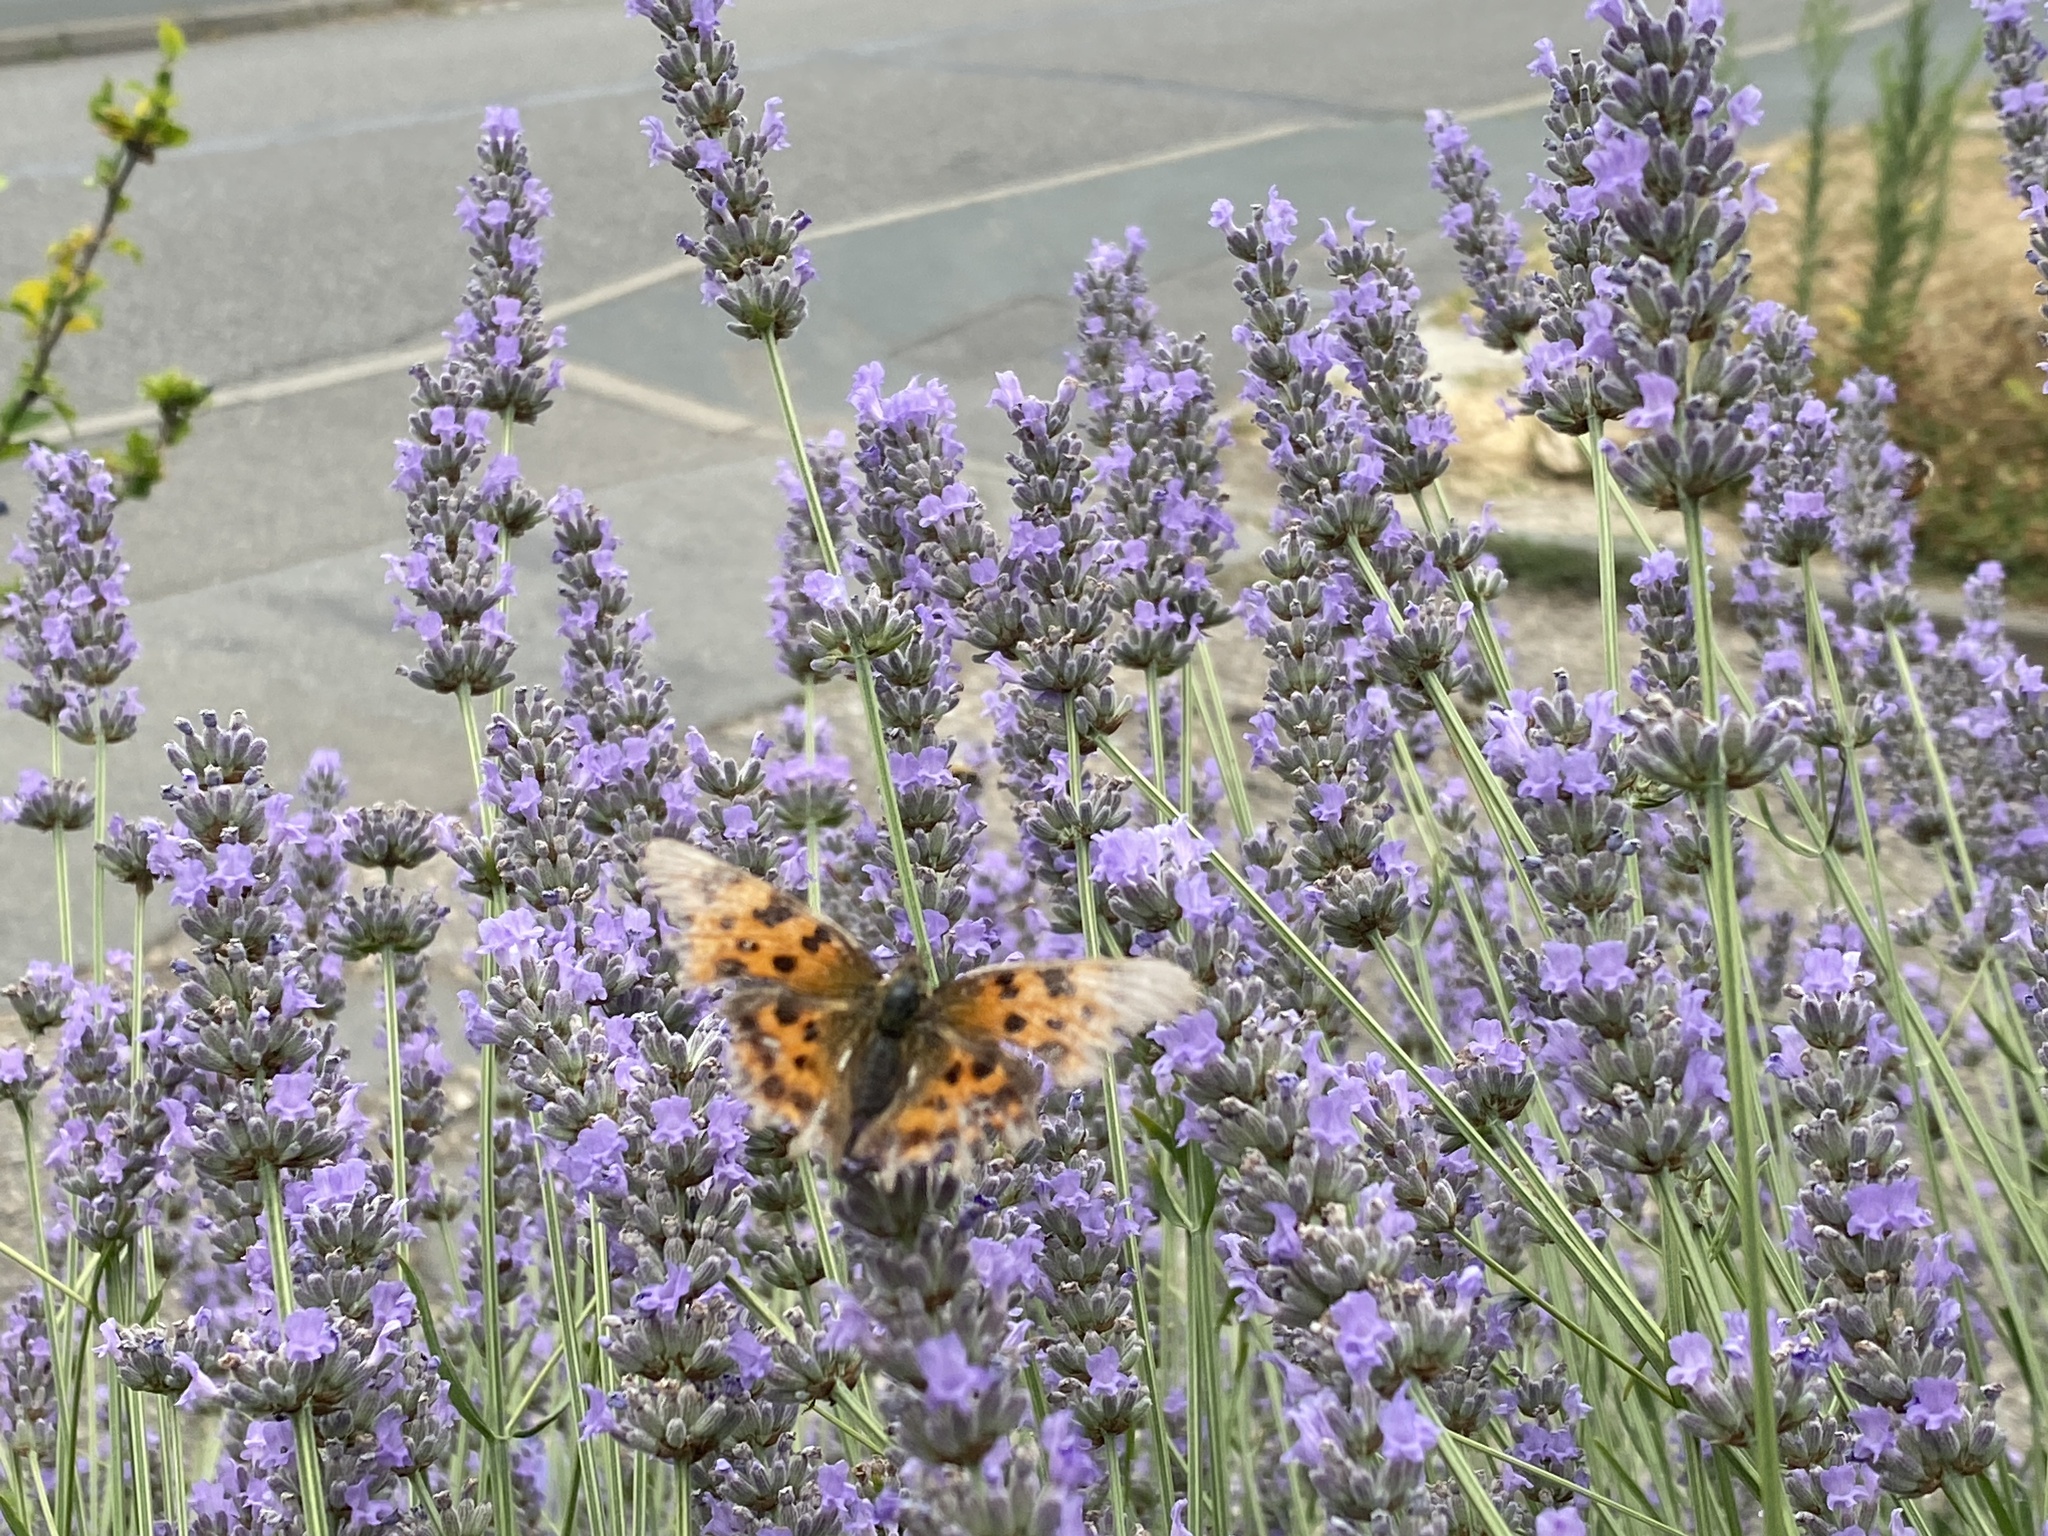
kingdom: Animalia
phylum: Arthropoda
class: Insecta
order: Lepidoptera
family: Nymphalidae
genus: Polygonia
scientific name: Polygonia c-album
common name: Comma
